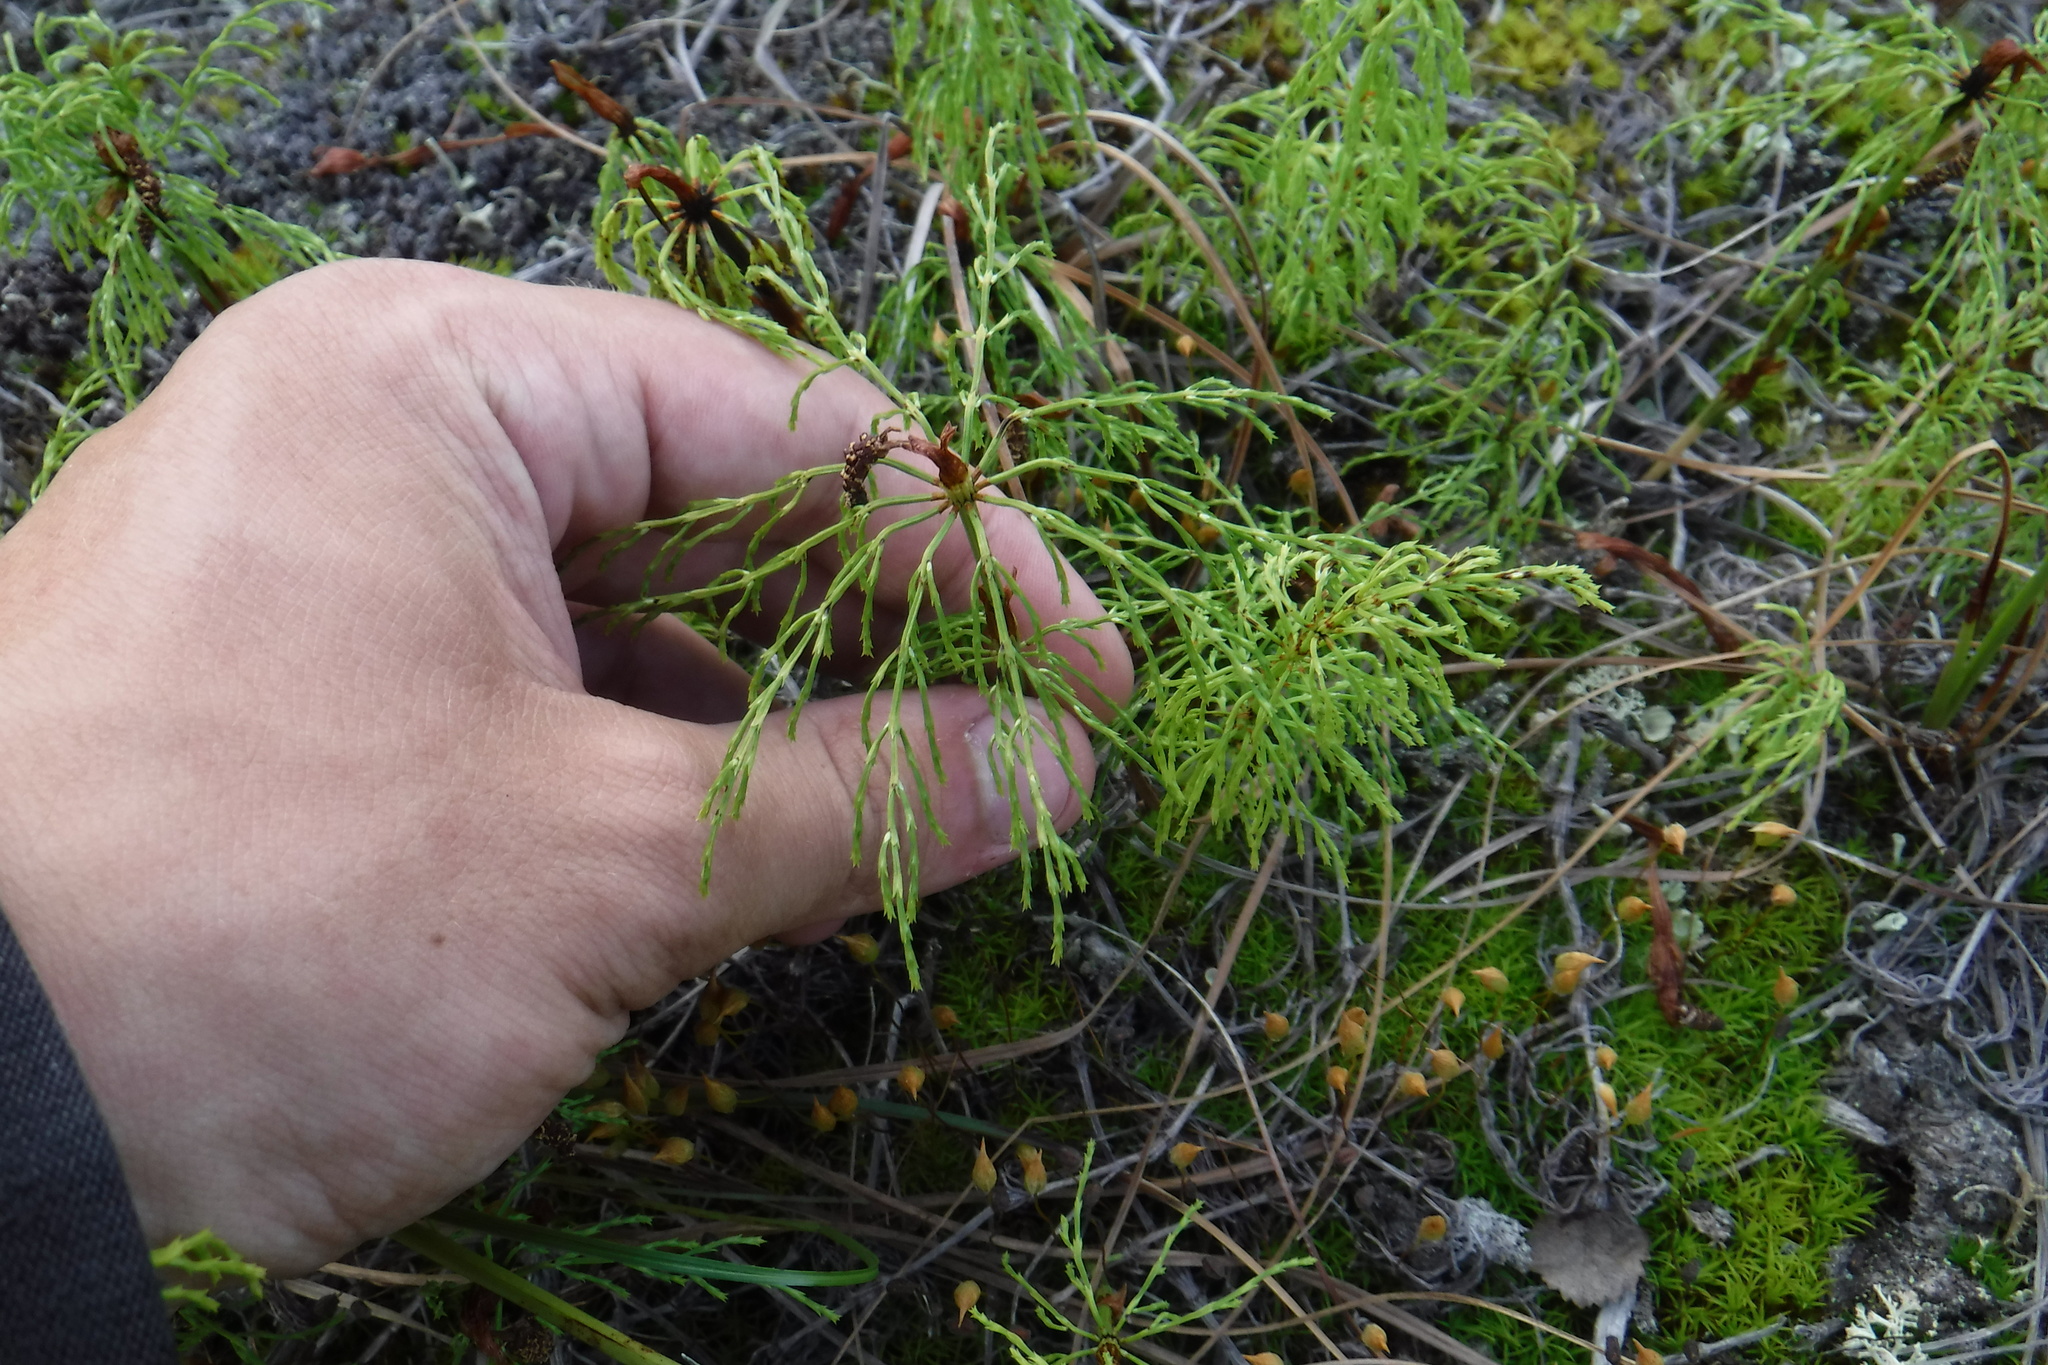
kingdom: Plantae
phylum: Tracheophyta
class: Polypodiopsida
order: Equisetales
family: Equisetaceae
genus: Equisetum
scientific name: Equisetum sylvaticum
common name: Wood horsetail
